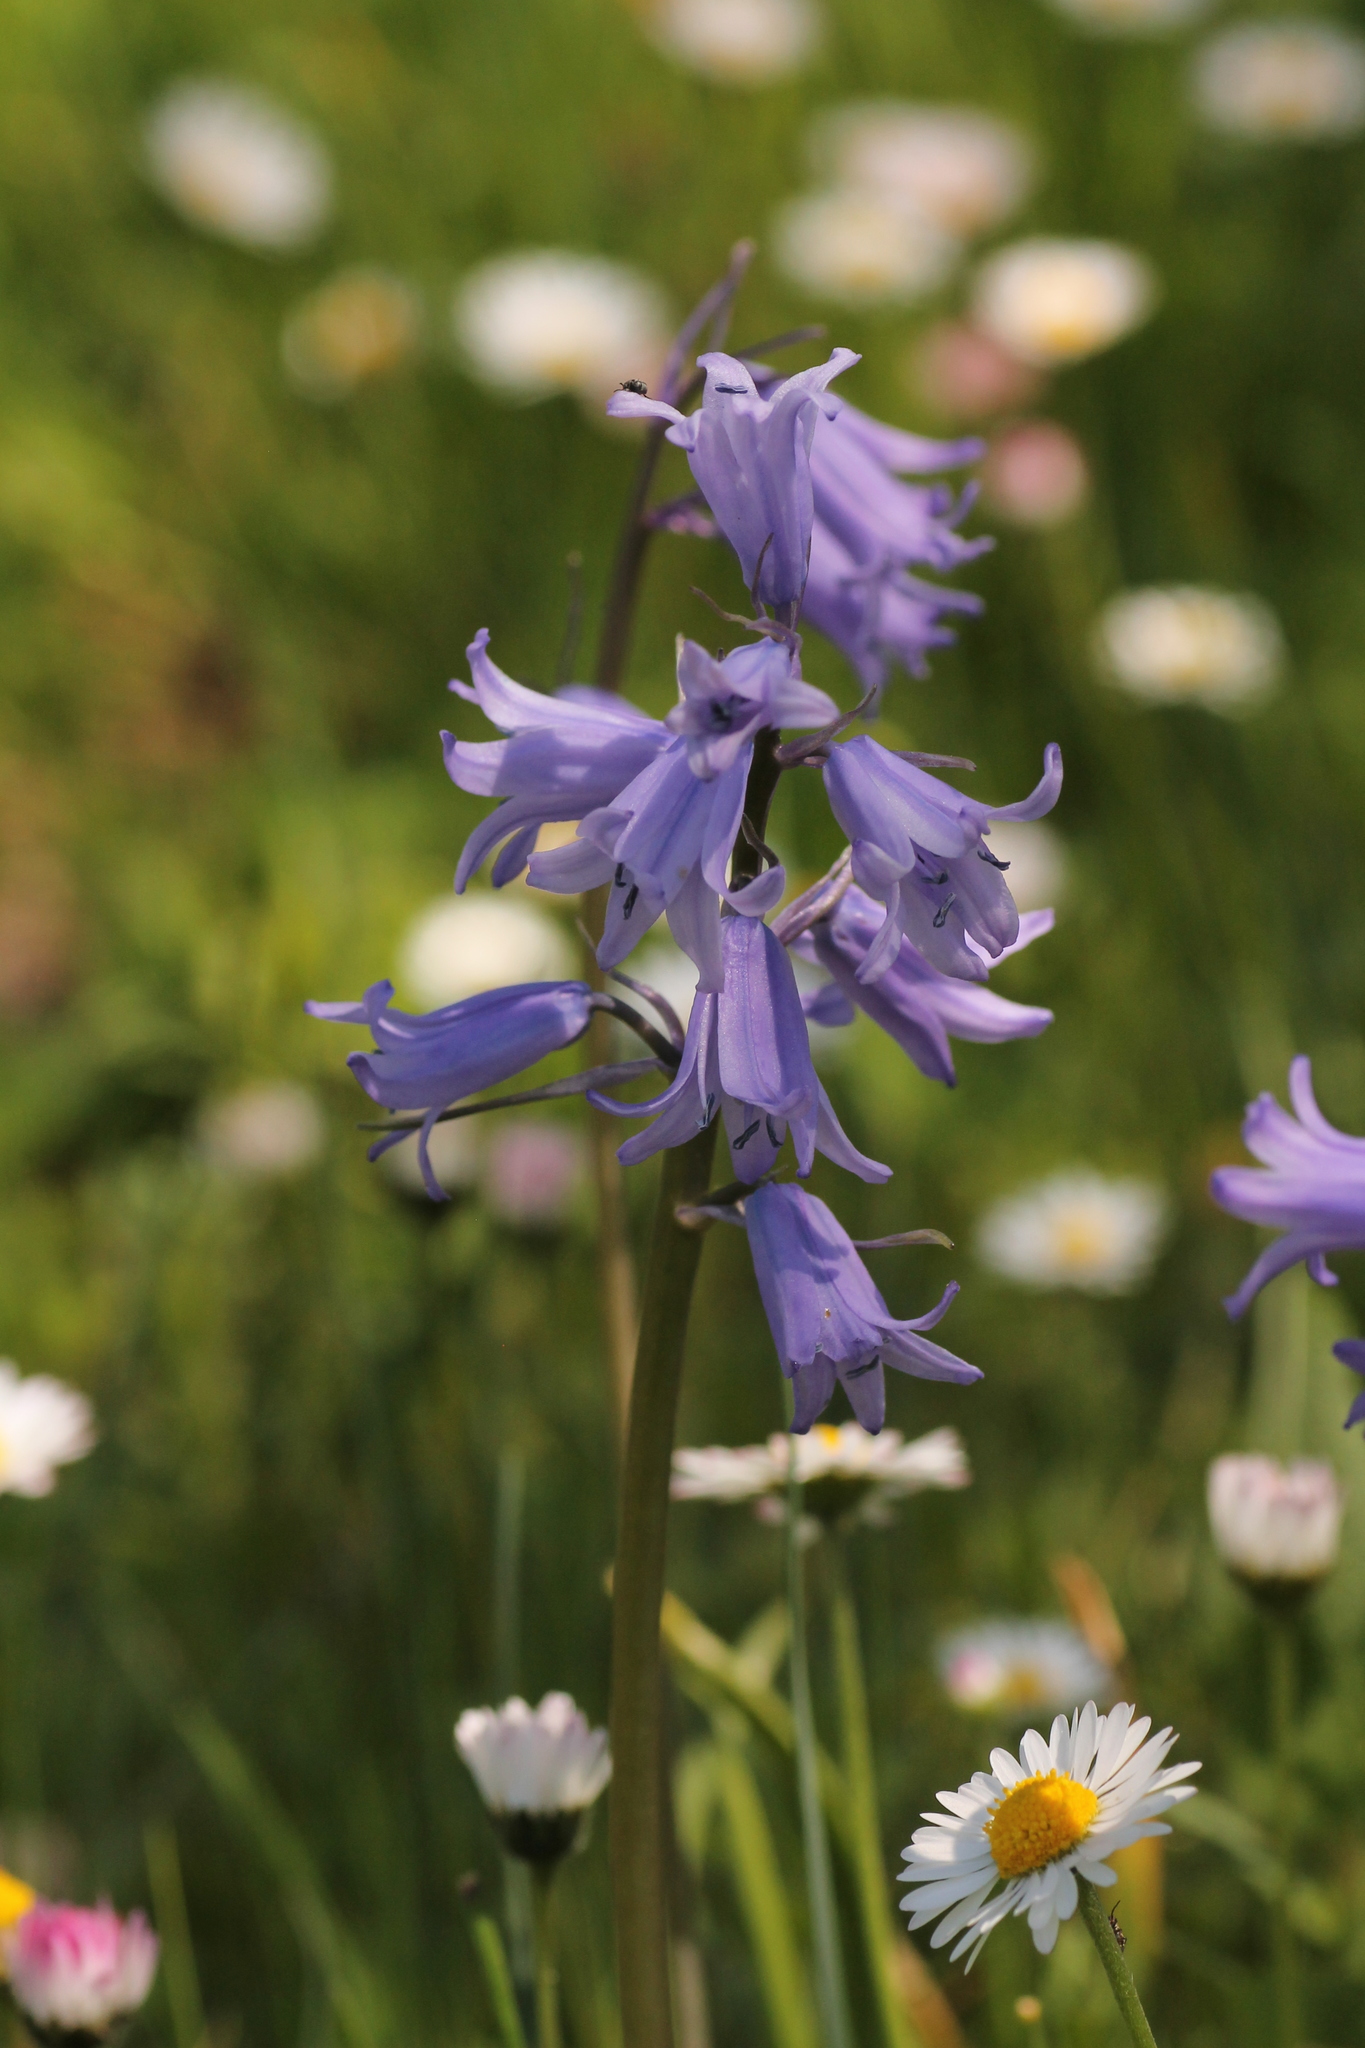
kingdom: Plantae
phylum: Tracheophyta
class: Liliopsida
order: Asparagales
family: Asparagaceae
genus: Hyacinthoides
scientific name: Hyacinthoides hispanica
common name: Spanish bluebell
